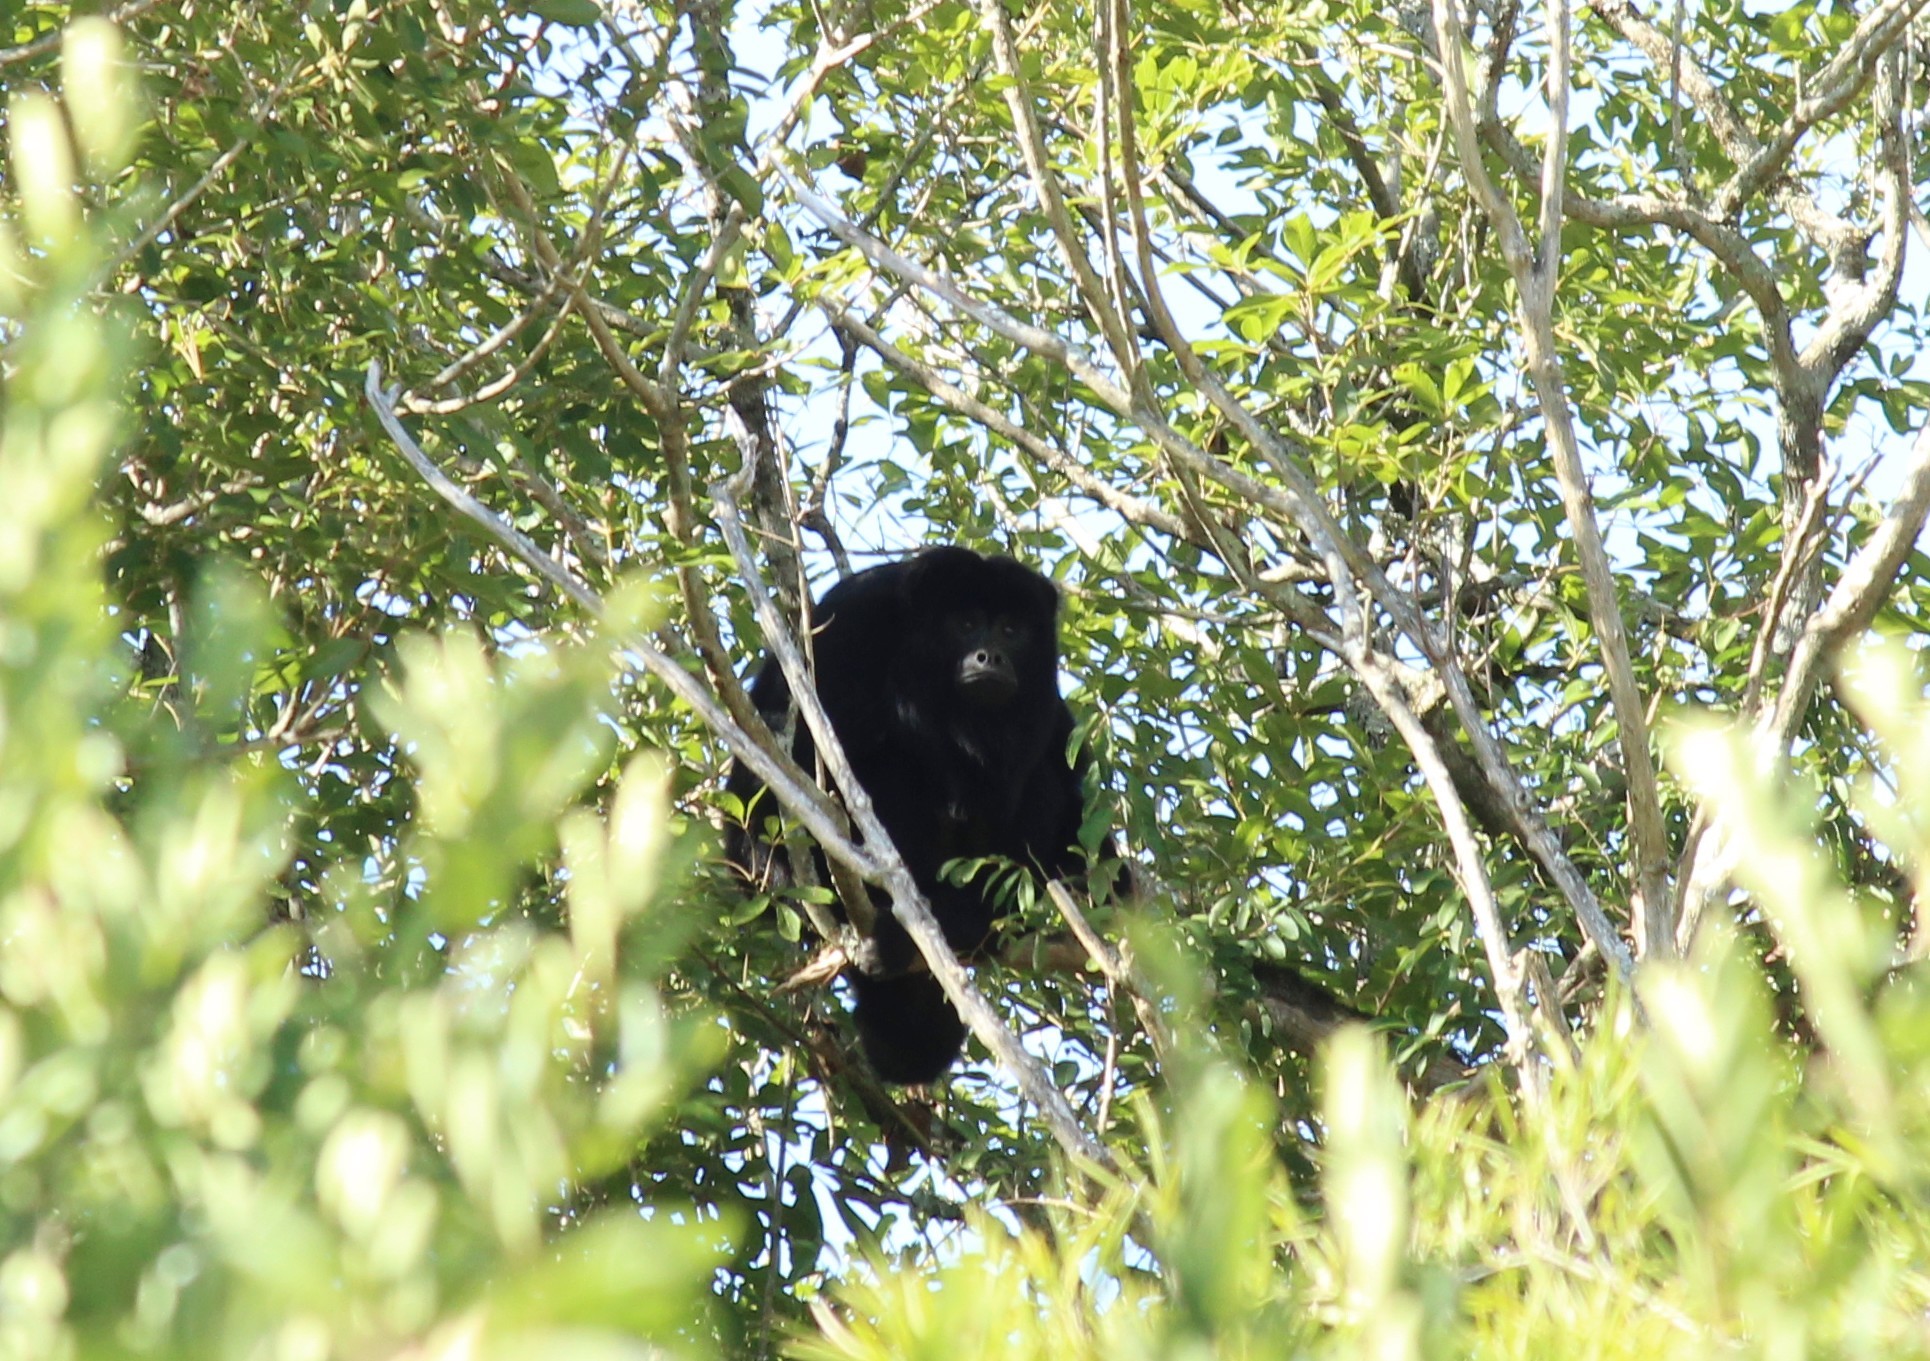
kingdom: Animalia
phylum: Chordata
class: Mammalia
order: Primates
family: Atelidae
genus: Alouatta
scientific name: Alouatta caraya
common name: Black howler
